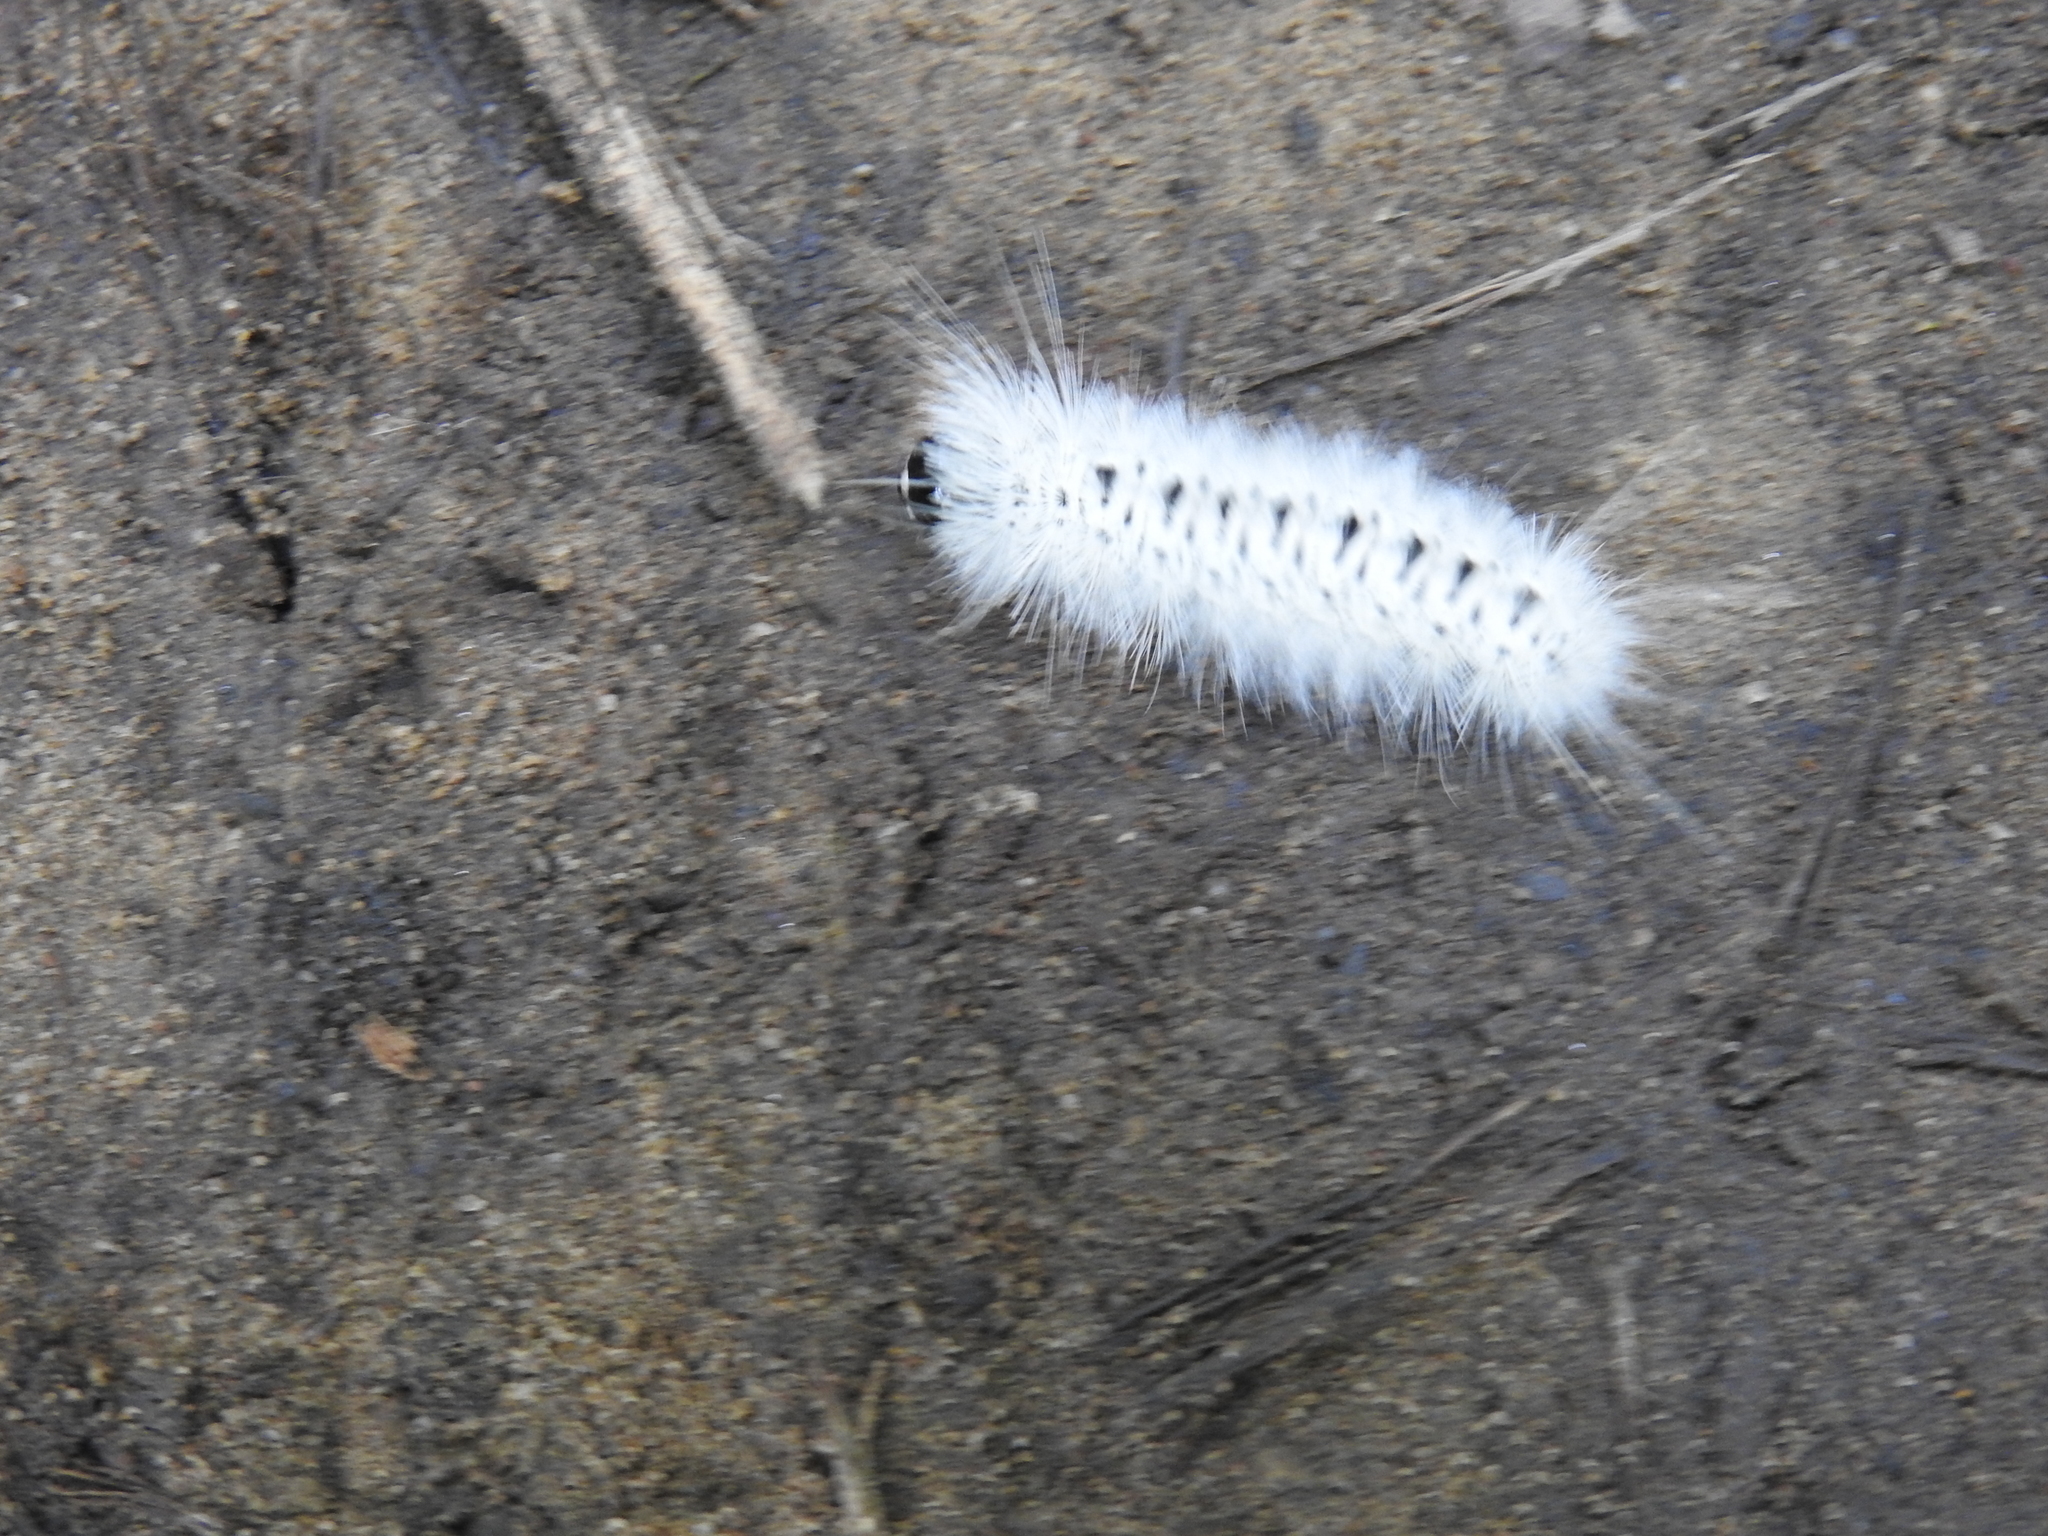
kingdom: Animalia
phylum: Arthropoda
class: Insecta
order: Lepidoptera
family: Erebidae
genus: Lophocampa
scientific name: Lophocampa caryae
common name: Hickory tussock moth
